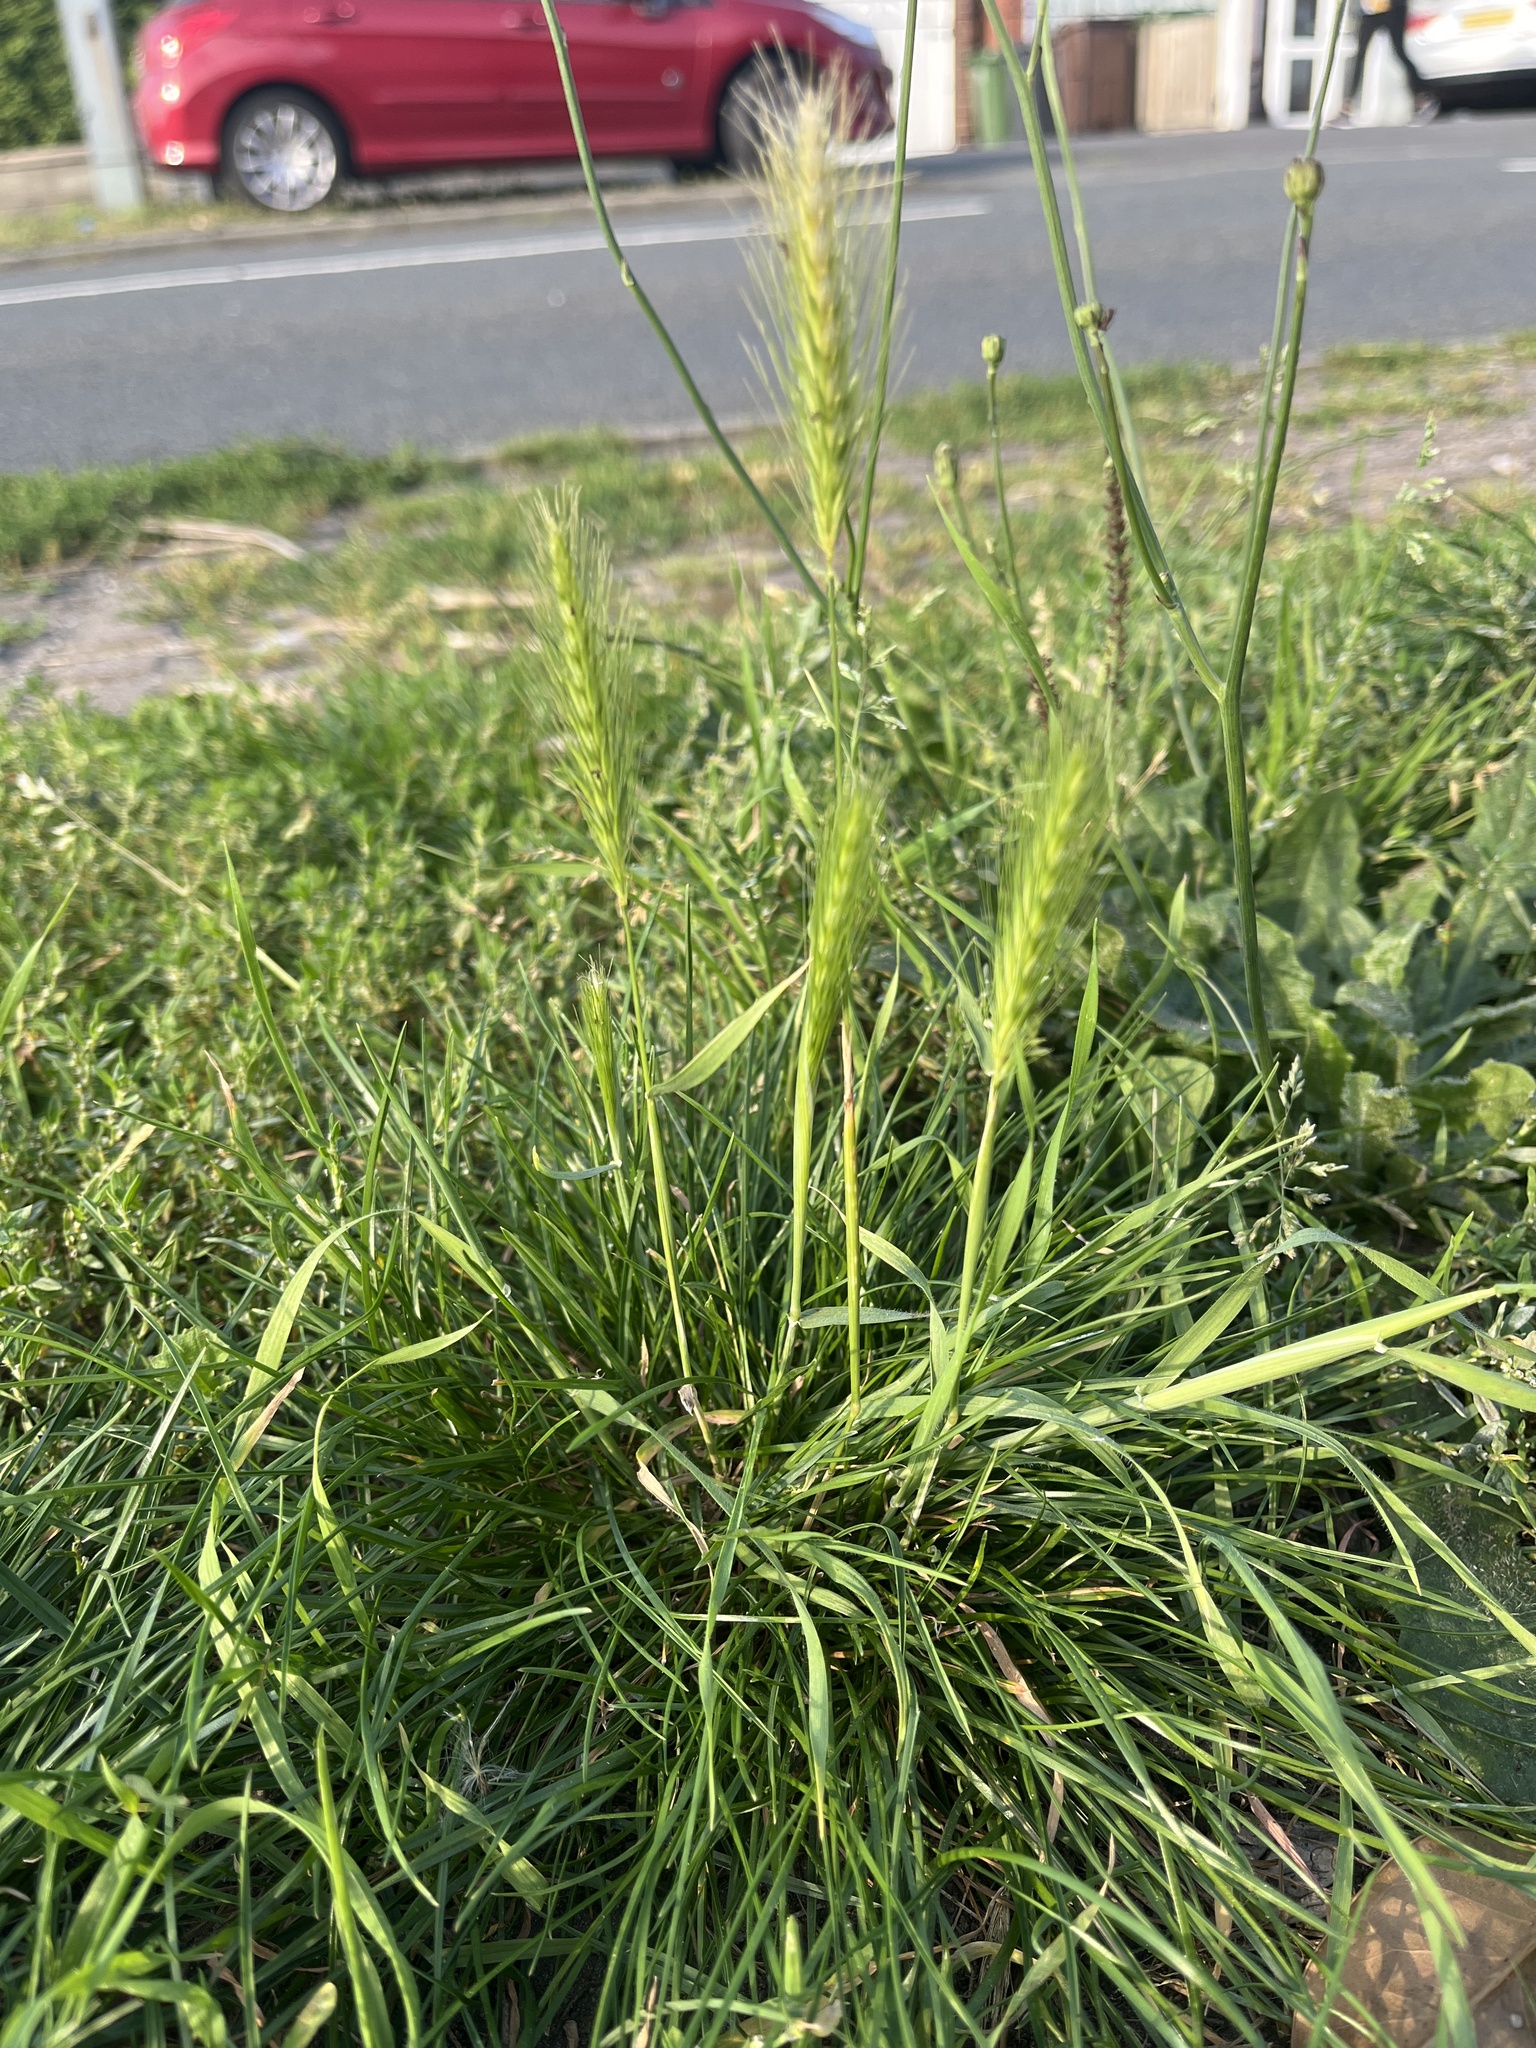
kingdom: Plantae
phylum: Tracheophyta
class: Liliopsida
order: Poales
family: Poaceae
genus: Hordeum
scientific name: Hordeum murinum
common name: Wall barley
